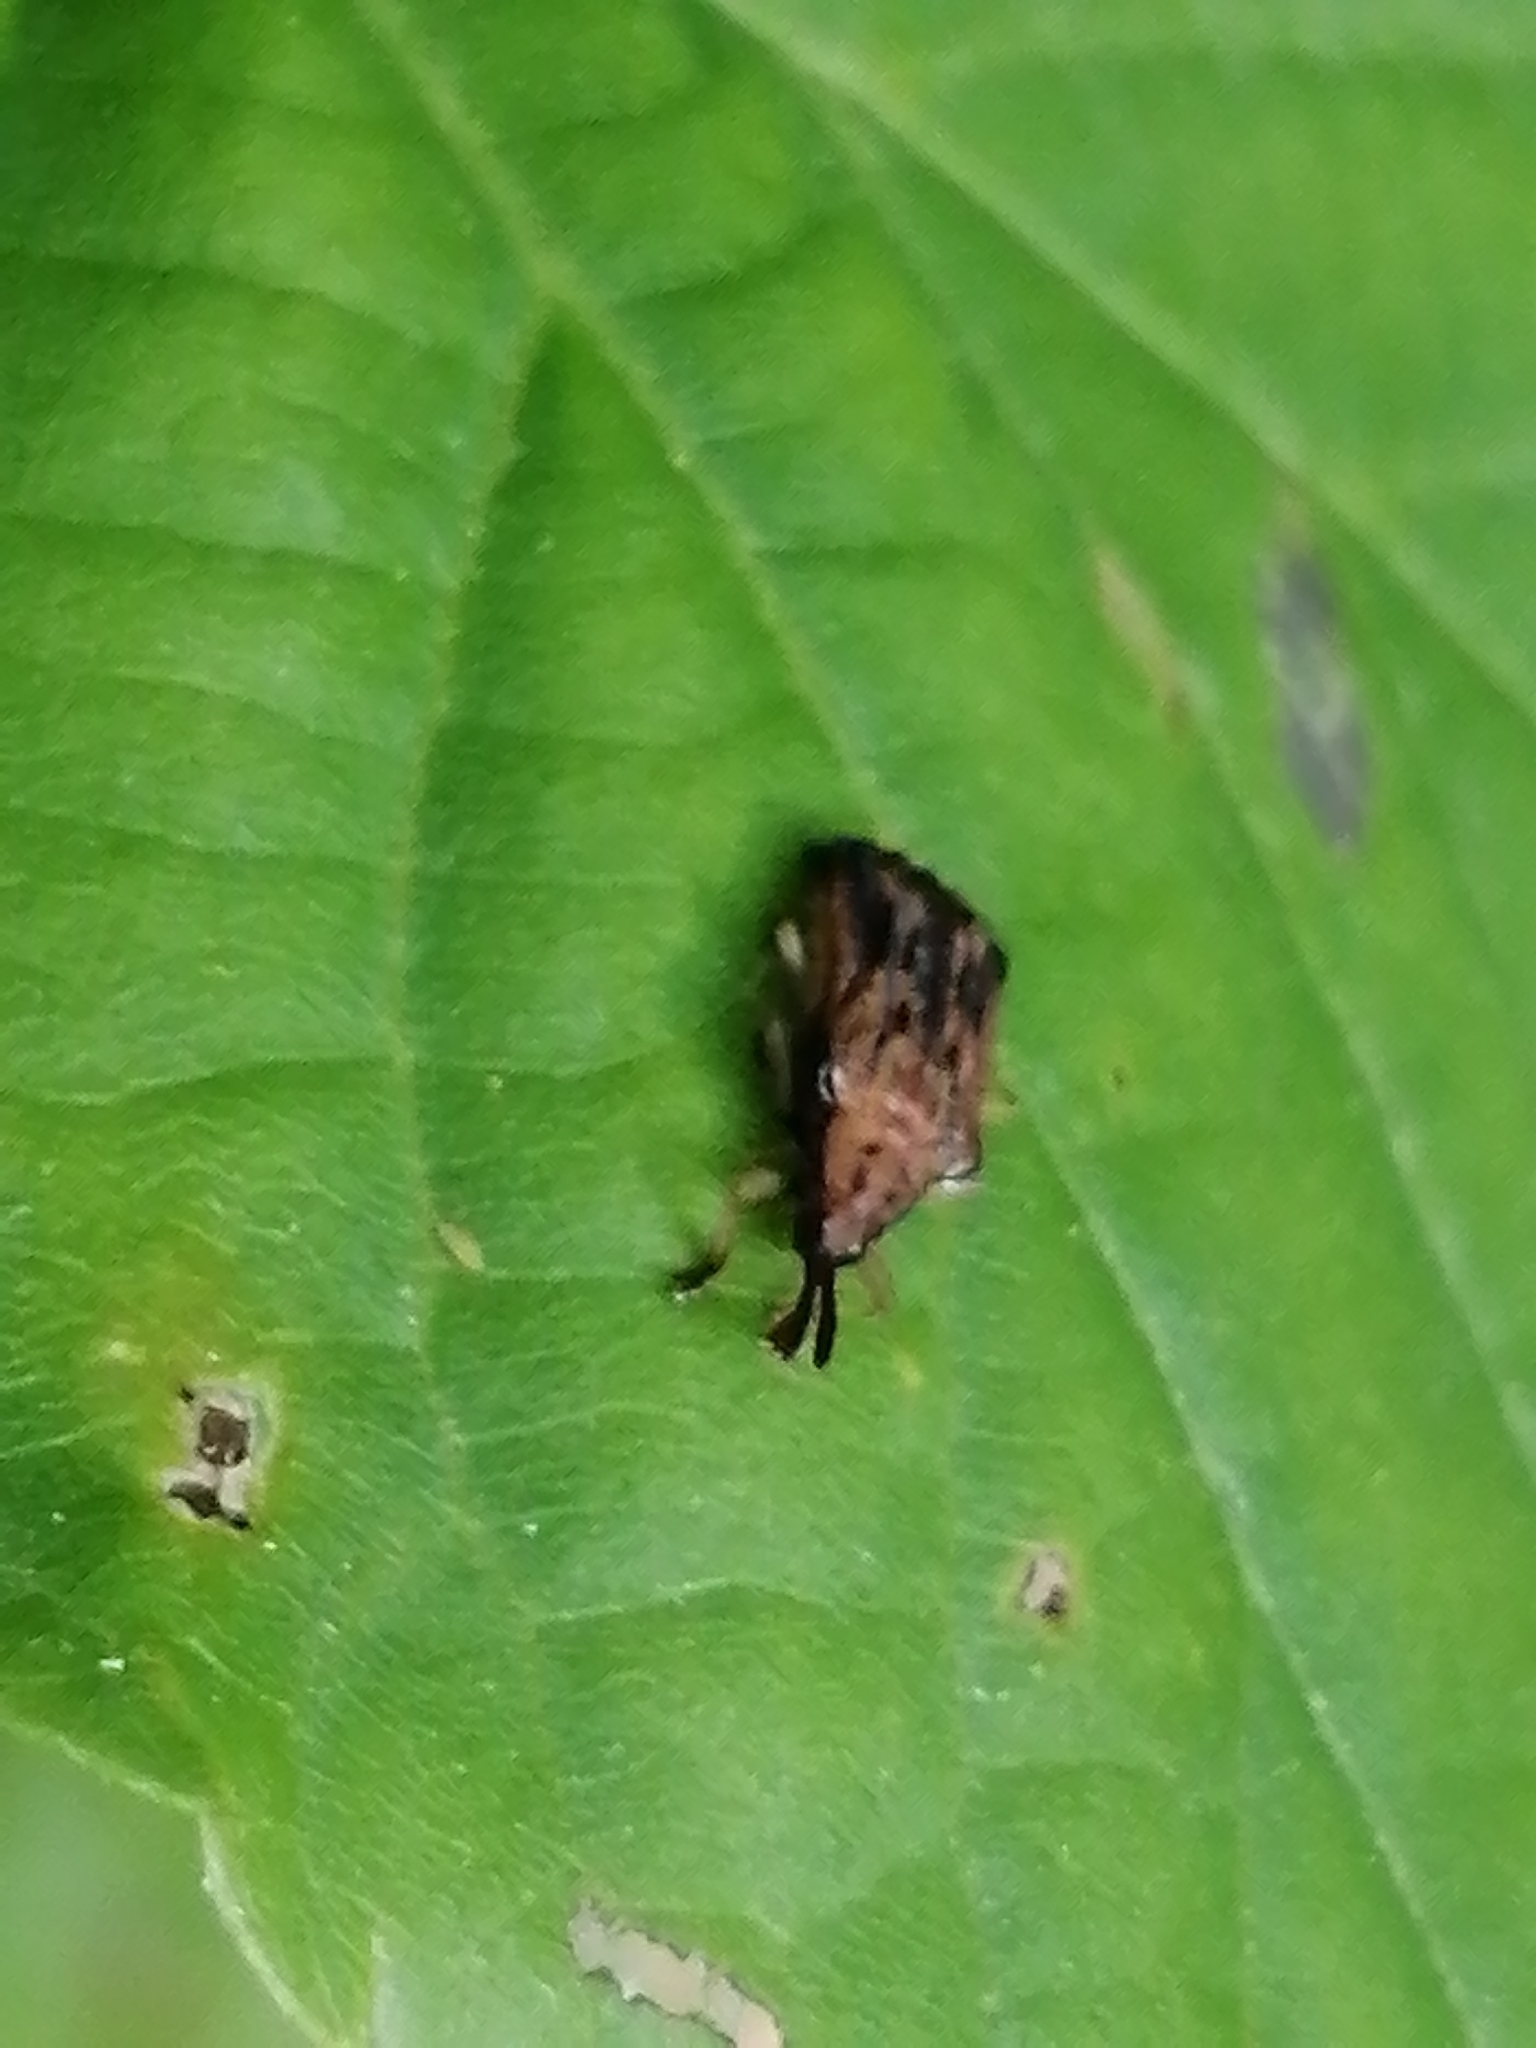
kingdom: Animalia
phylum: Arthropoda
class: Insecta
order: Coleoptera
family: Chrysomelidae
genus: Baliosus
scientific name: Baliosus nervosus
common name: Basswood leaf miner
